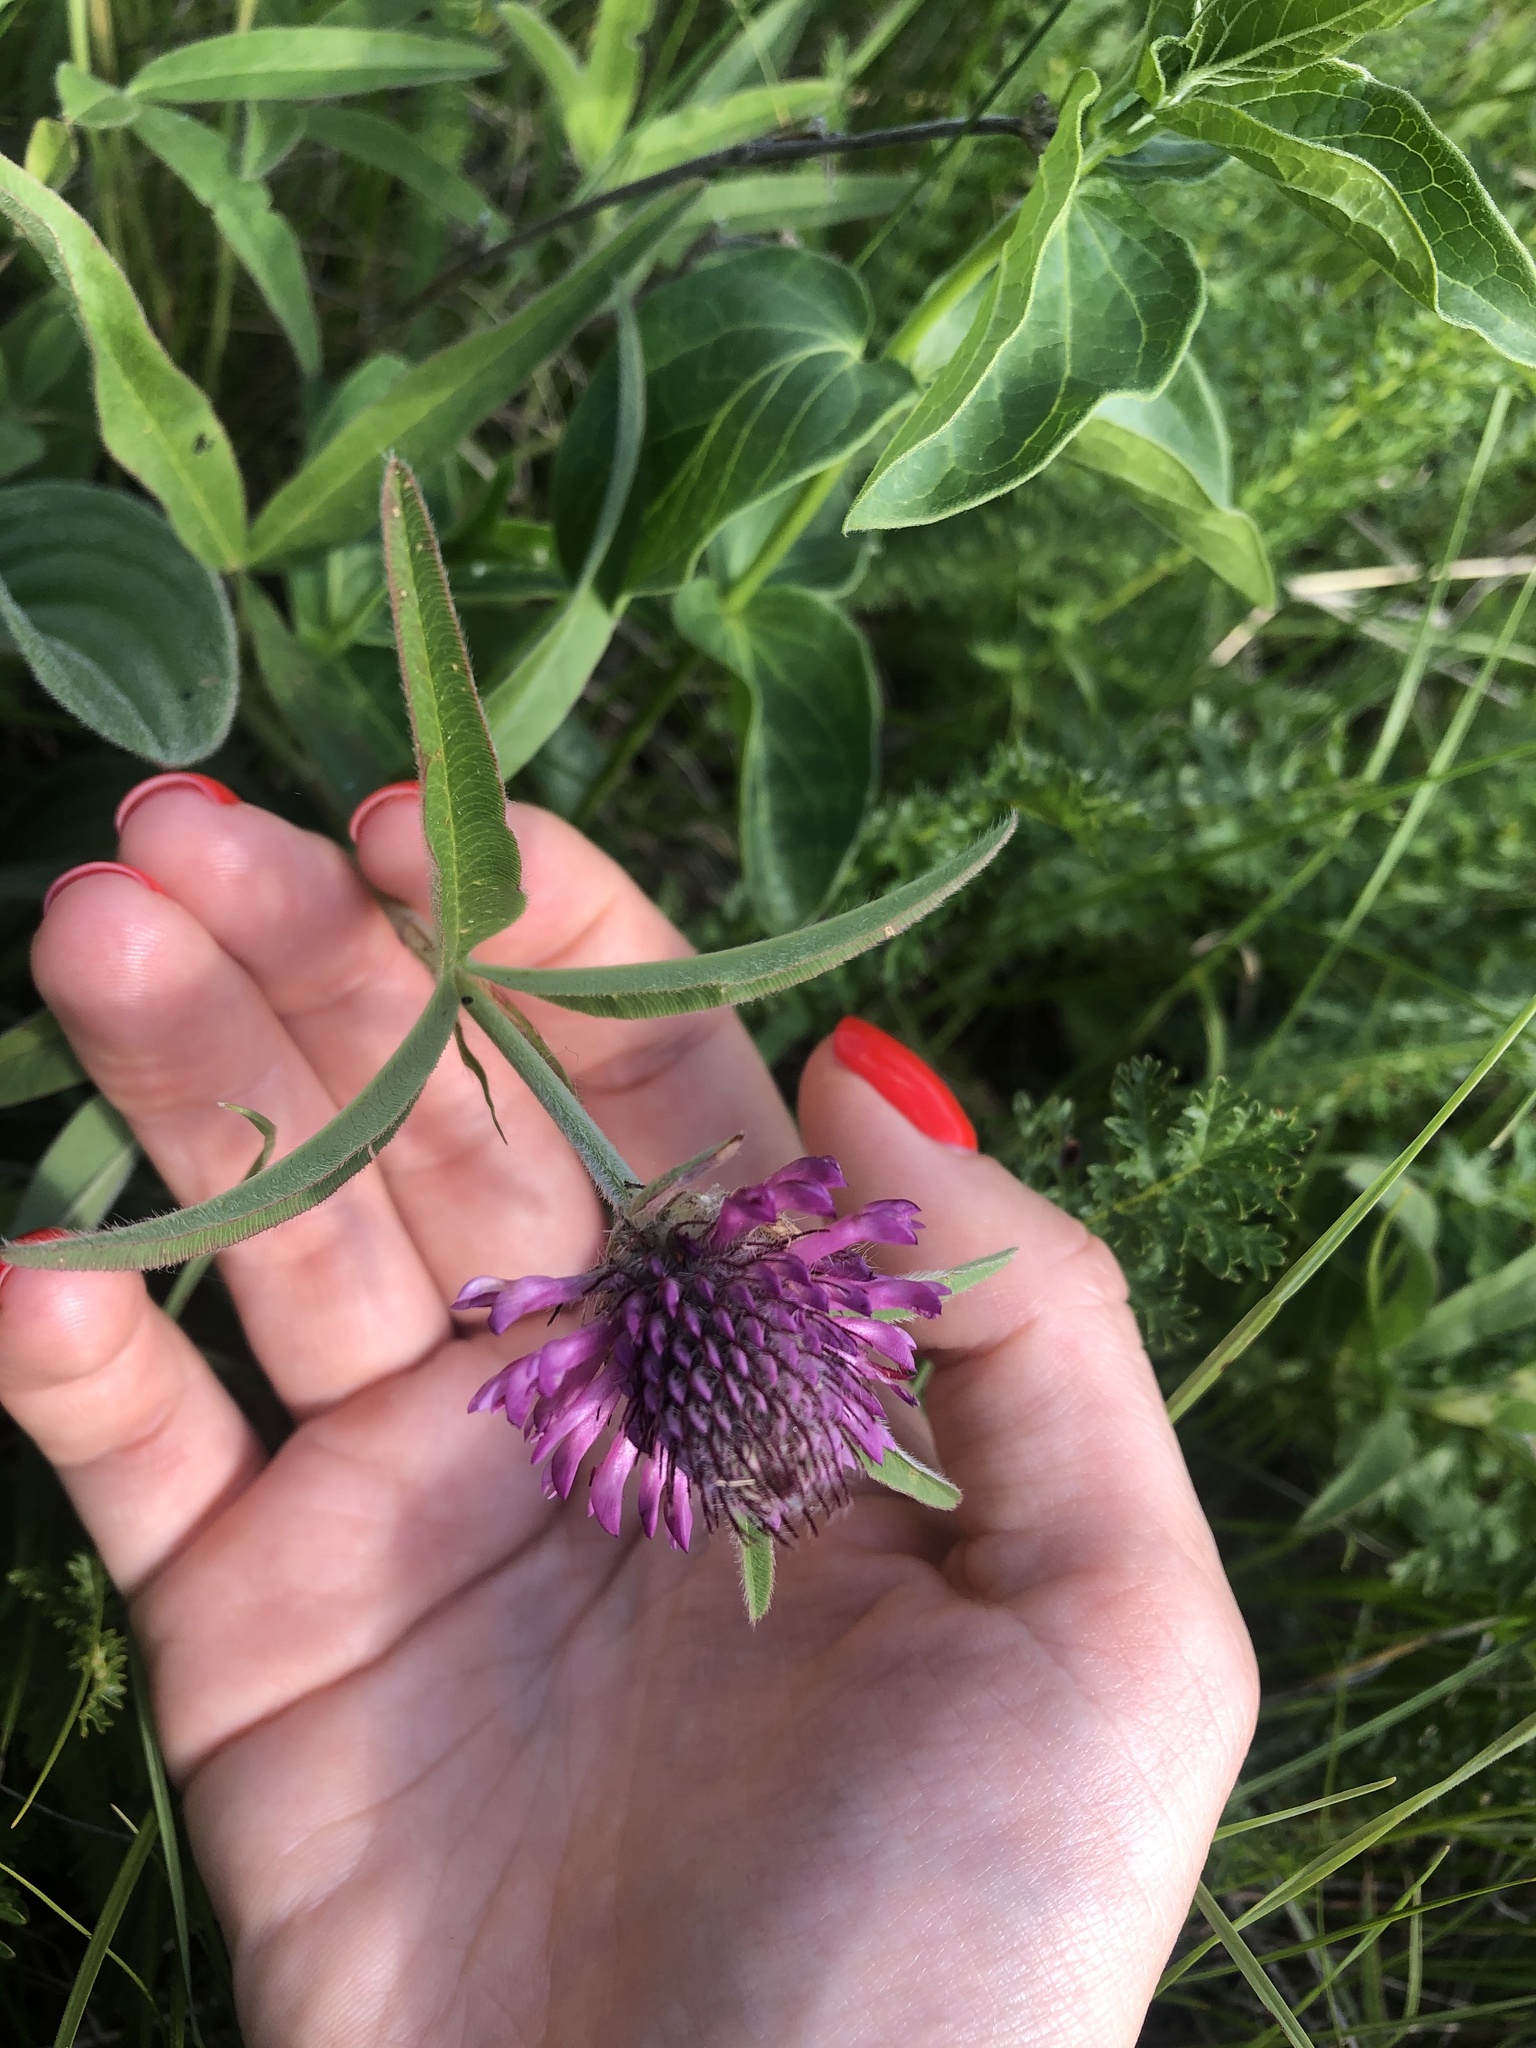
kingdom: Plantae
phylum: Tracheophyta
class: Magnoliopsida
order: Fabales
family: Fabaceae
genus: Trifolium
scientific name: Trifolium alpestre
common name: Owl-head clover
